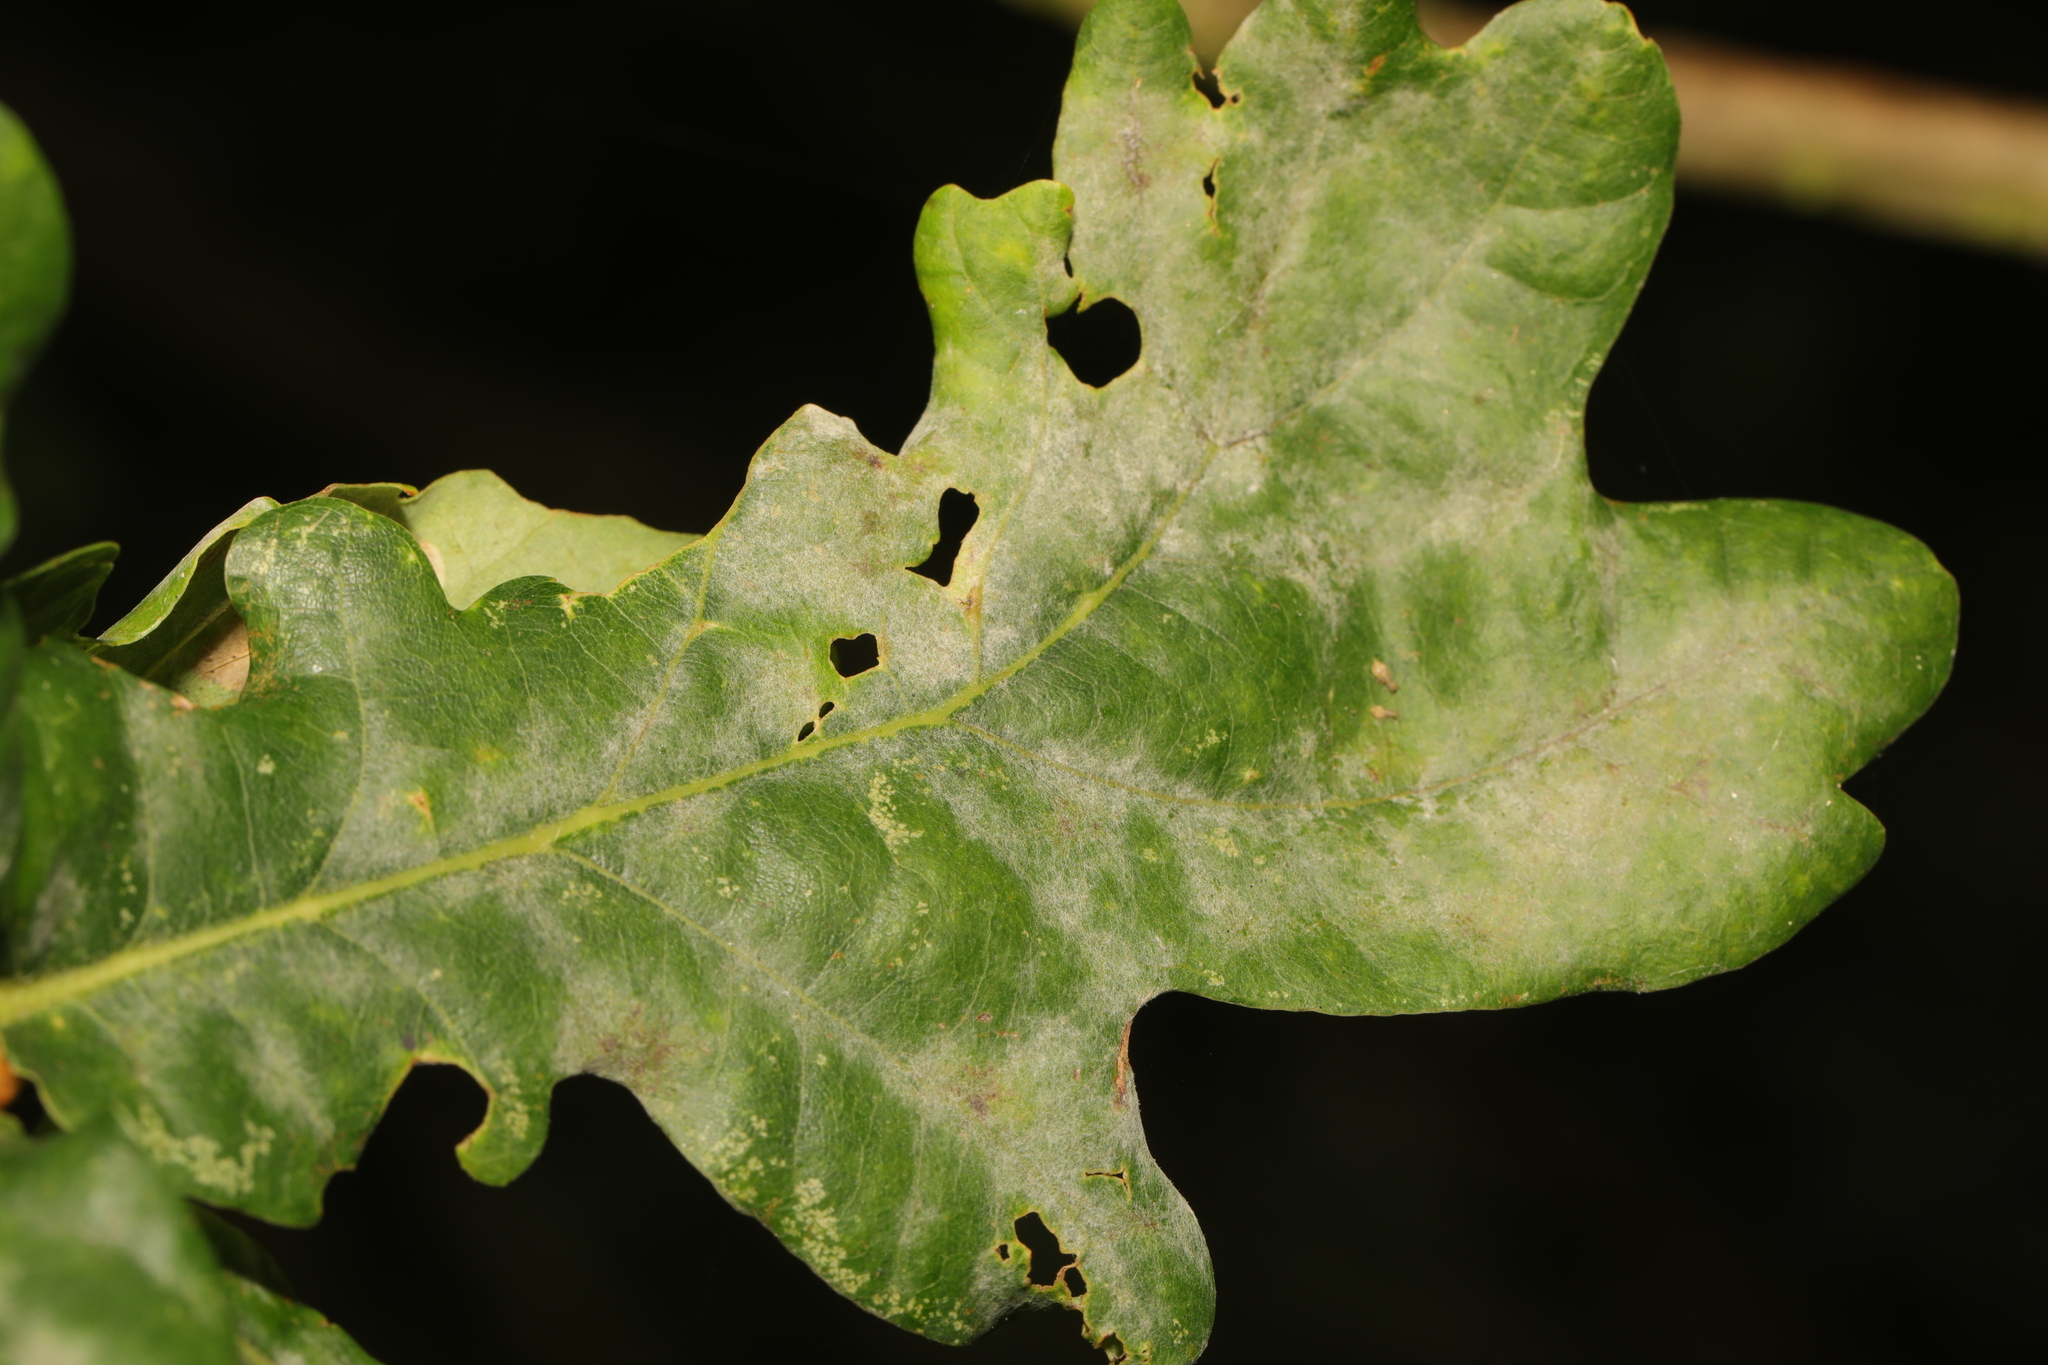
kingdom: Fungi
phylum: Ascomycota
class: Leotiomycetes
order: Helotiales
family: Erysiphaceae
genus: Erysiphe
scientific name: Erysiphe alphitoides
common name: Oak mildew
